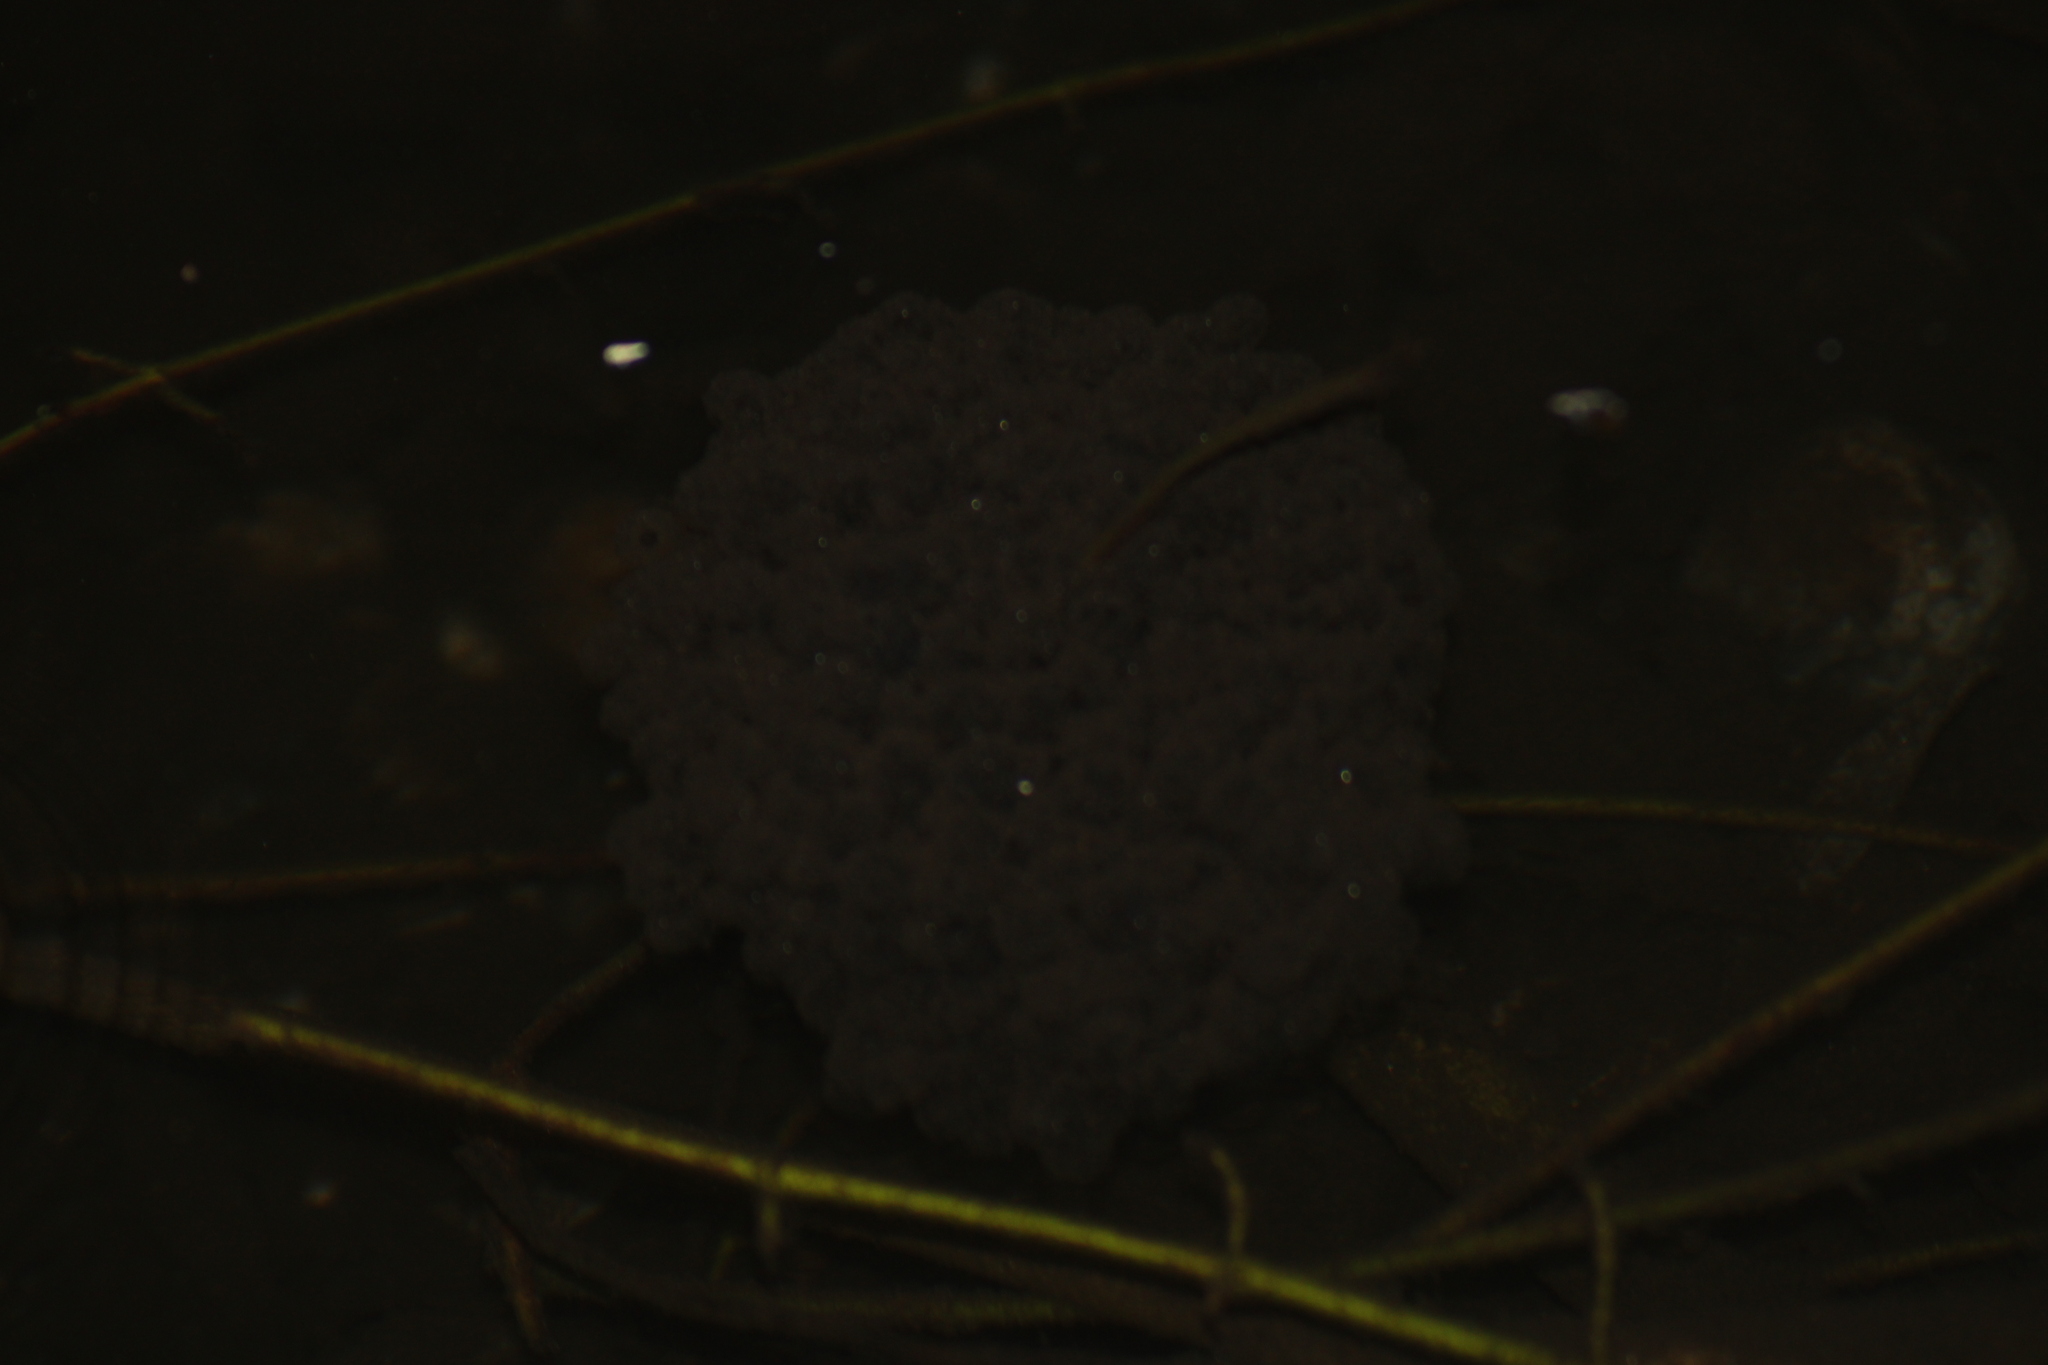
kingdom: Animalia
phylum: Chordata
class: Amphibia
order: Anura
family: Ranidae
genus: Rana
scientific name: Rana dalmatina
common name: Agile frog
